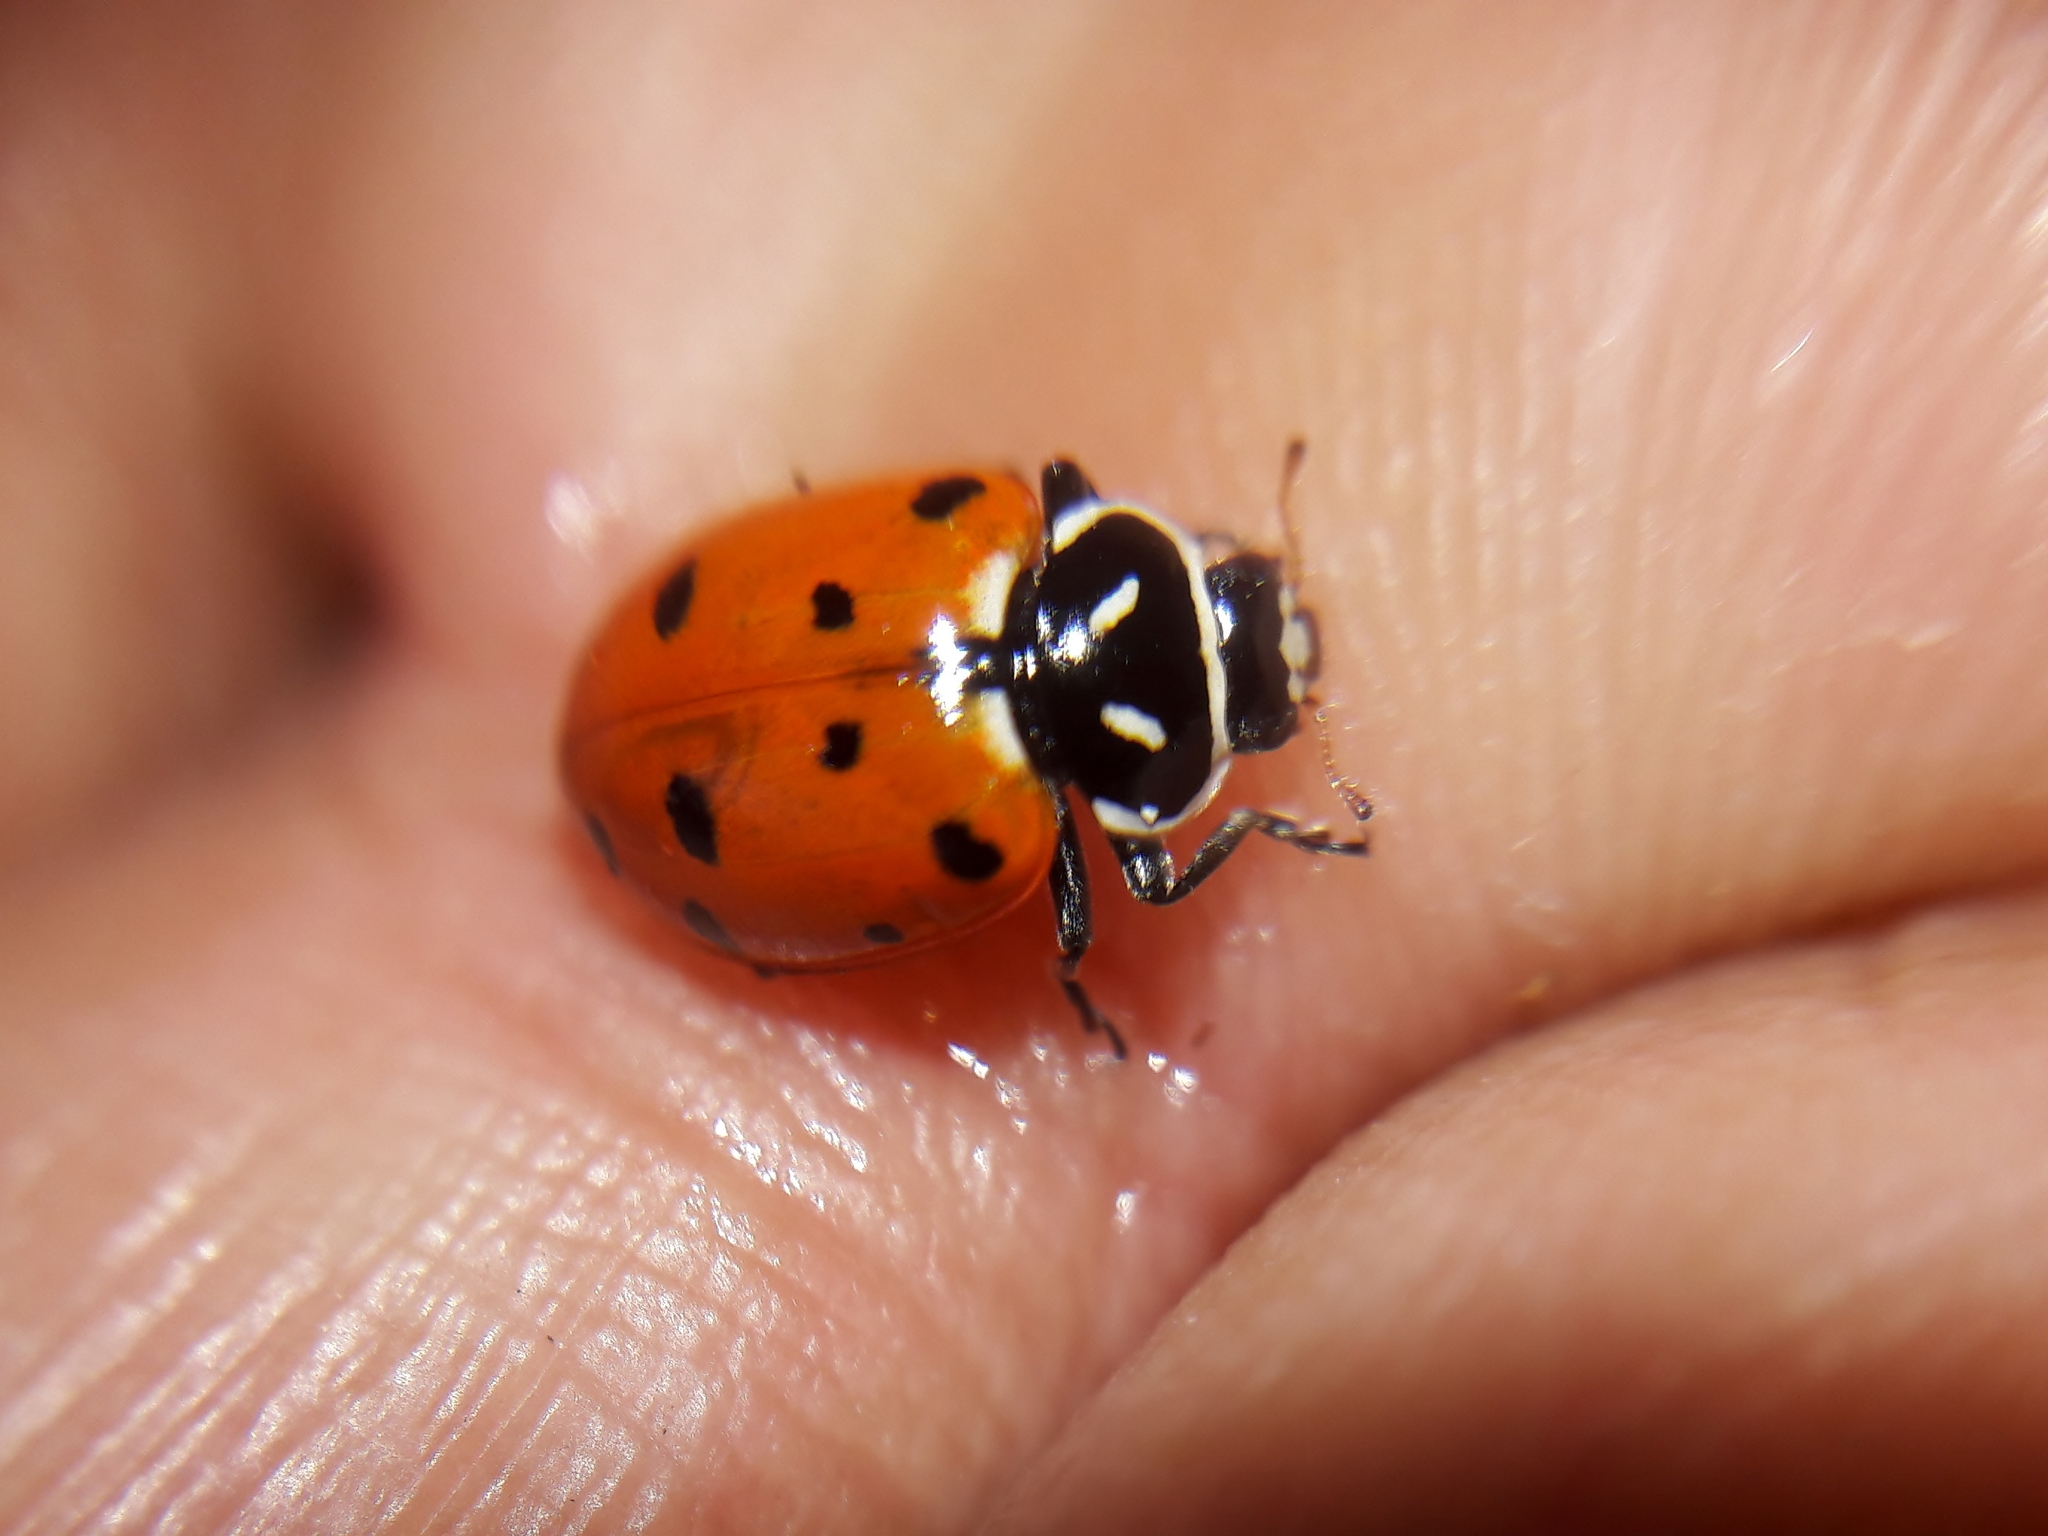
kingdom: Animalia
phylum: Arthropoda
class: Insecta
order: Coleoptera
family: Coccinellidae
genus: Hippodamia
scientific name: Hippodamia convergens
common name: Convergent lady beetle
